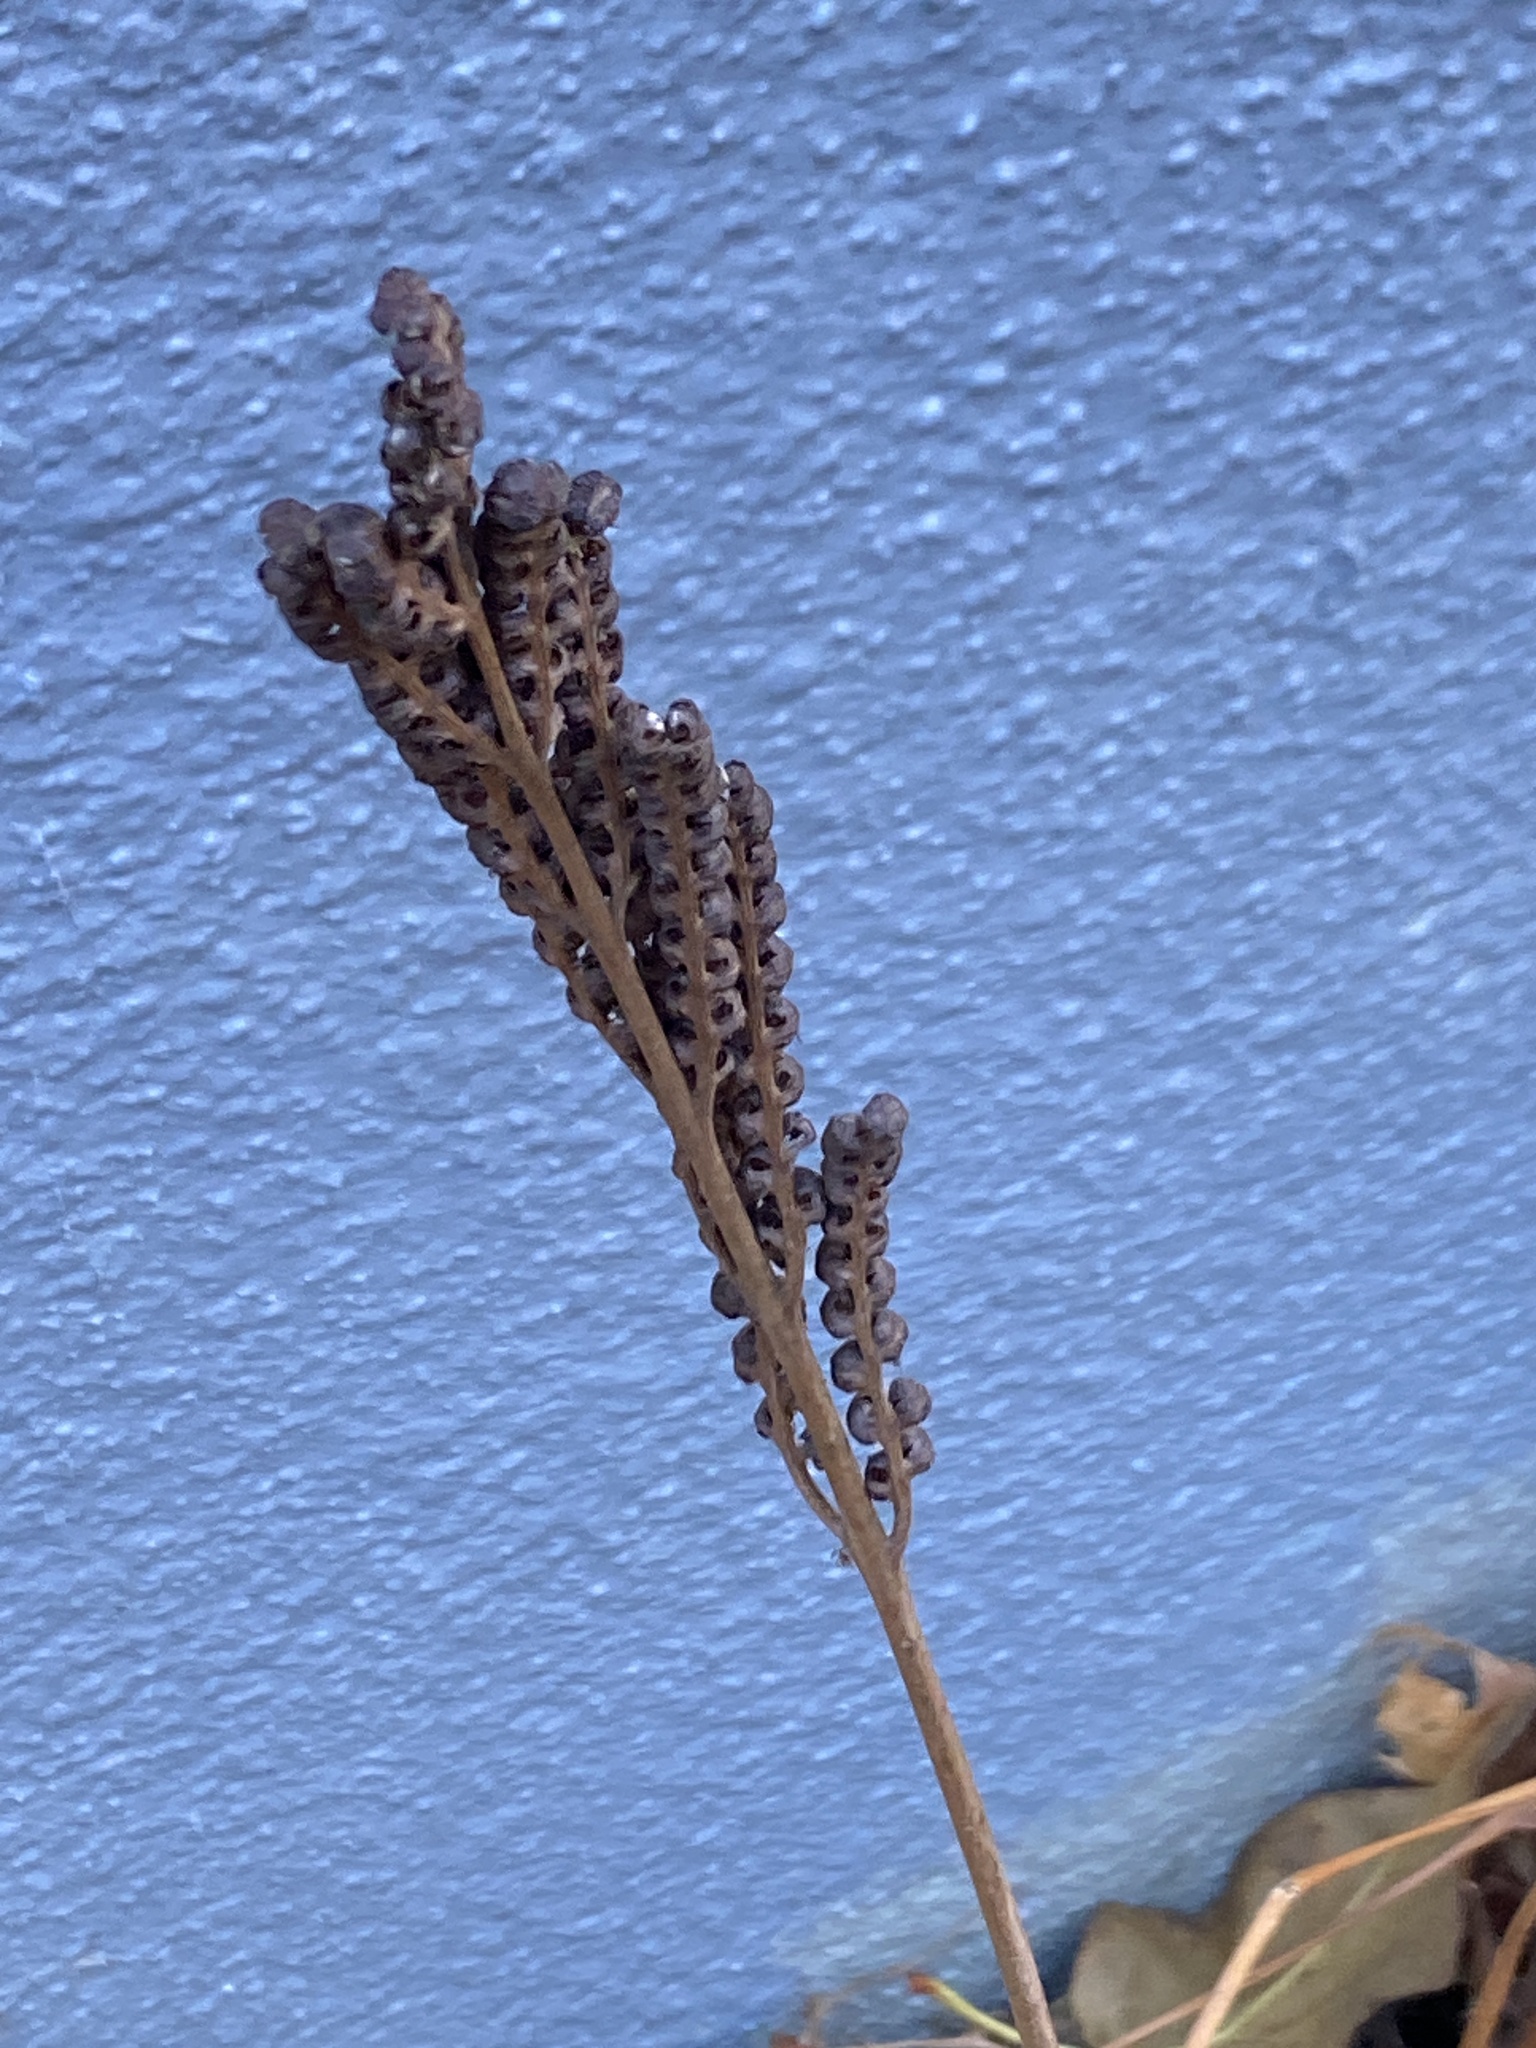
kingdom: Plantae
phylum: Tracheophyta
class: Polypodiopsida
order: Polypodiales
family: Onocleaceae
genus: Onoclea
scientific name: Onoclea sensibilis
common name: Sensitive fern
